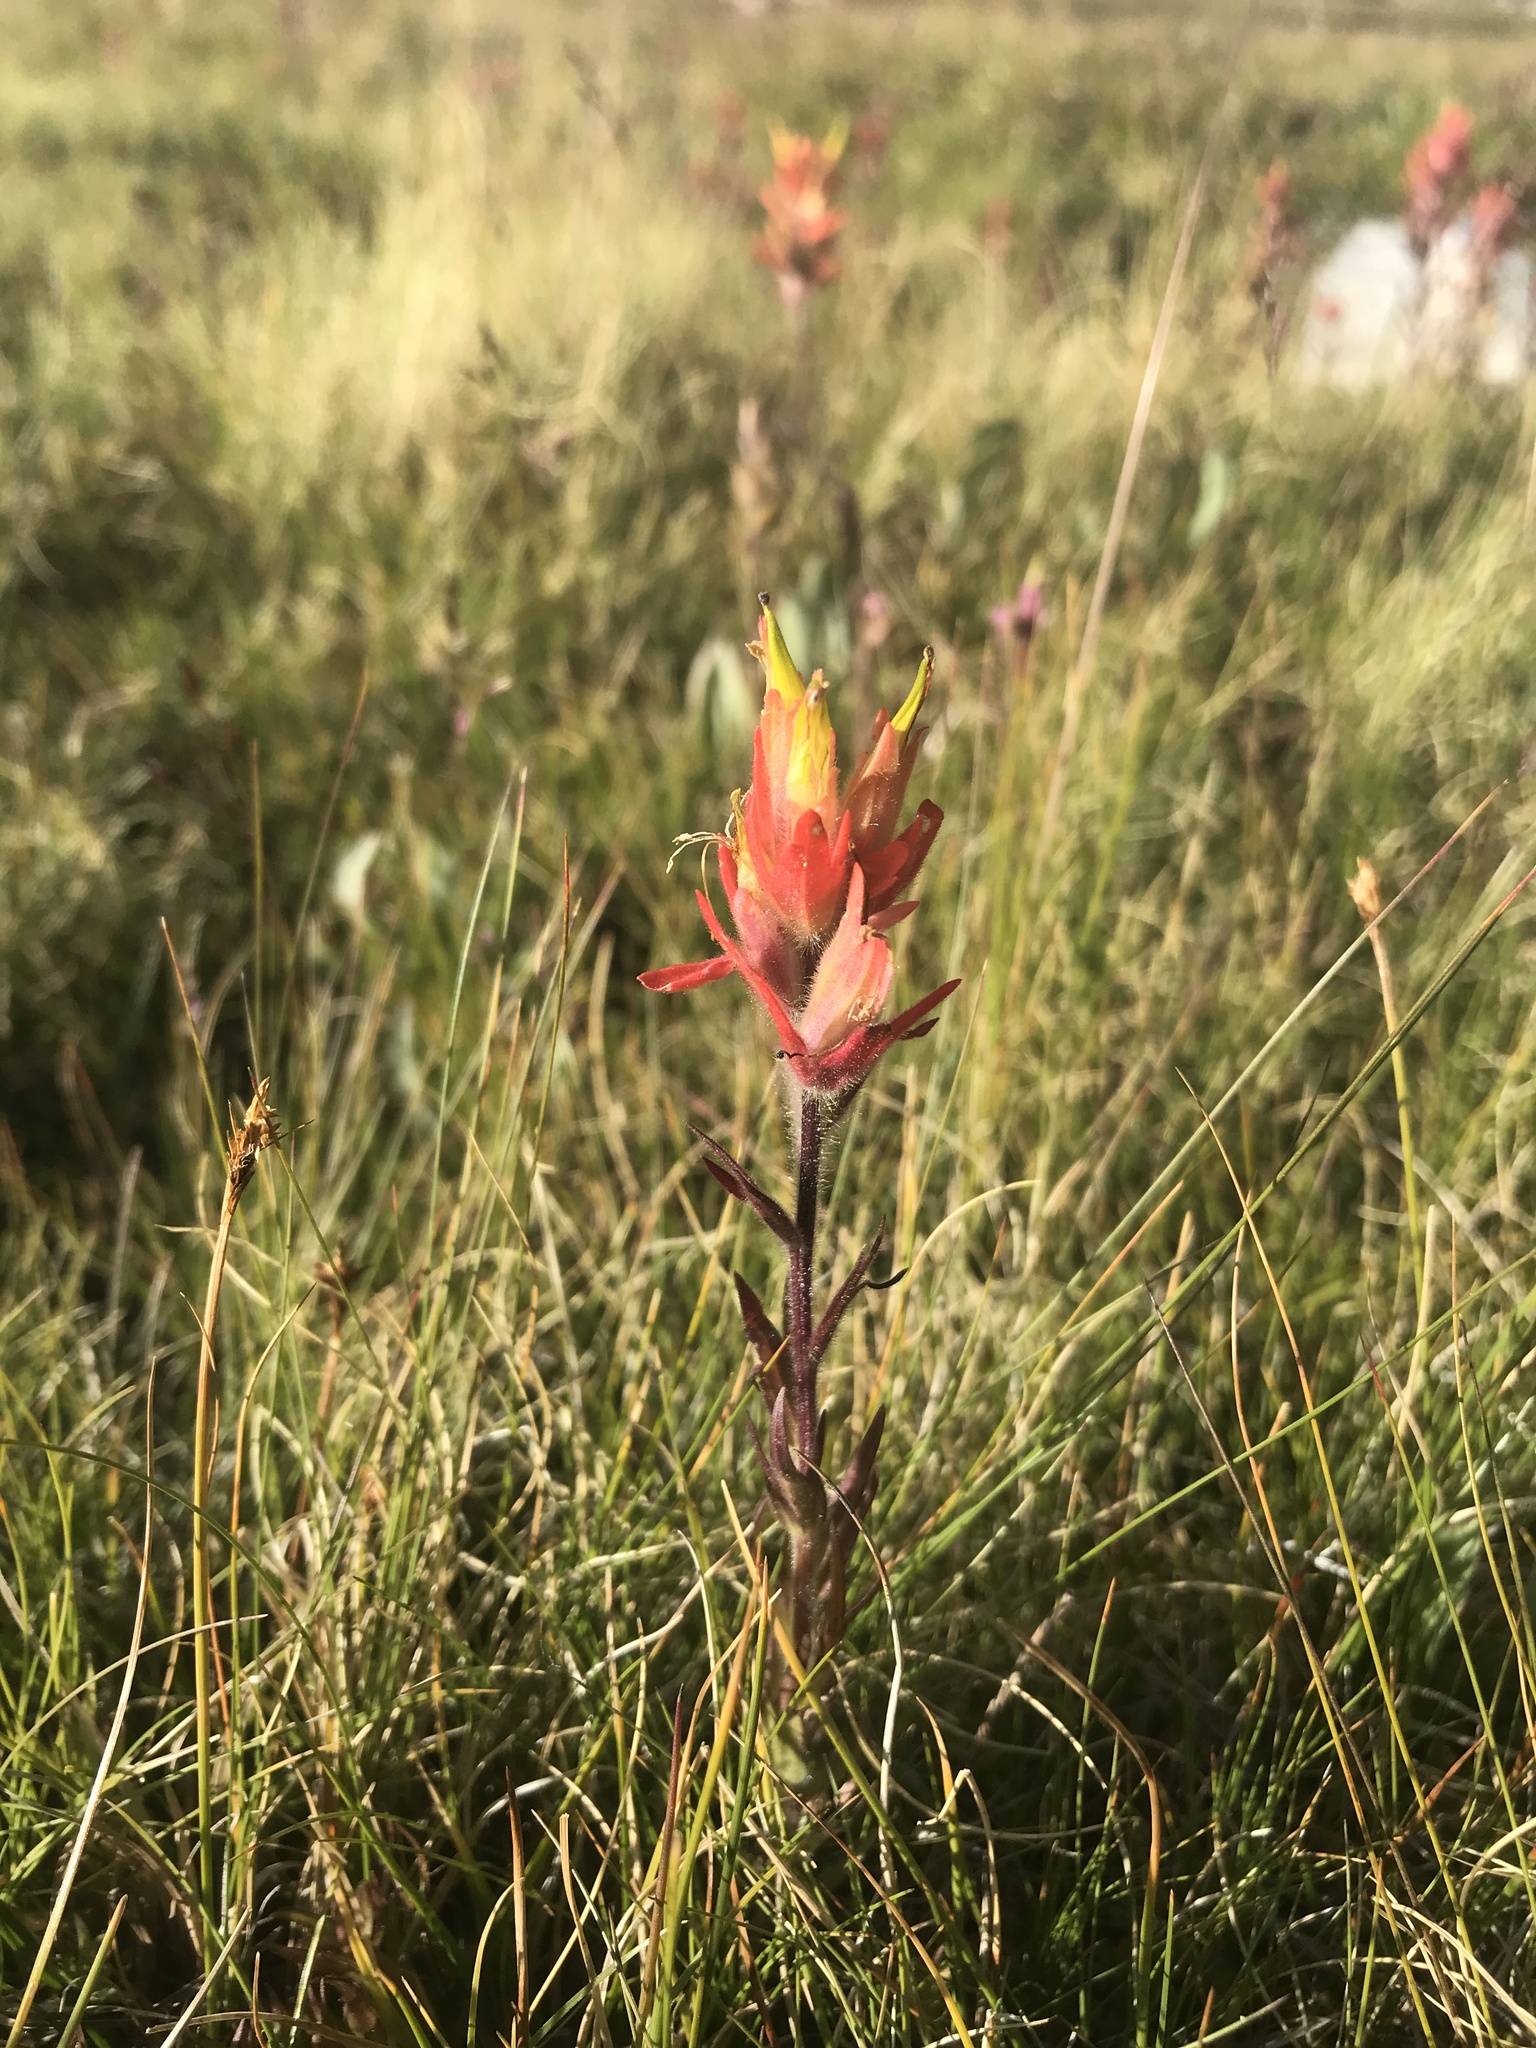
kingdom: Plantae
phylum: Tracheophyta
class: Magnoliopsida
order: Lamiales
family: Orobanchaceae
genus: Castilleja
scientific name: Castilleja peirsonii
